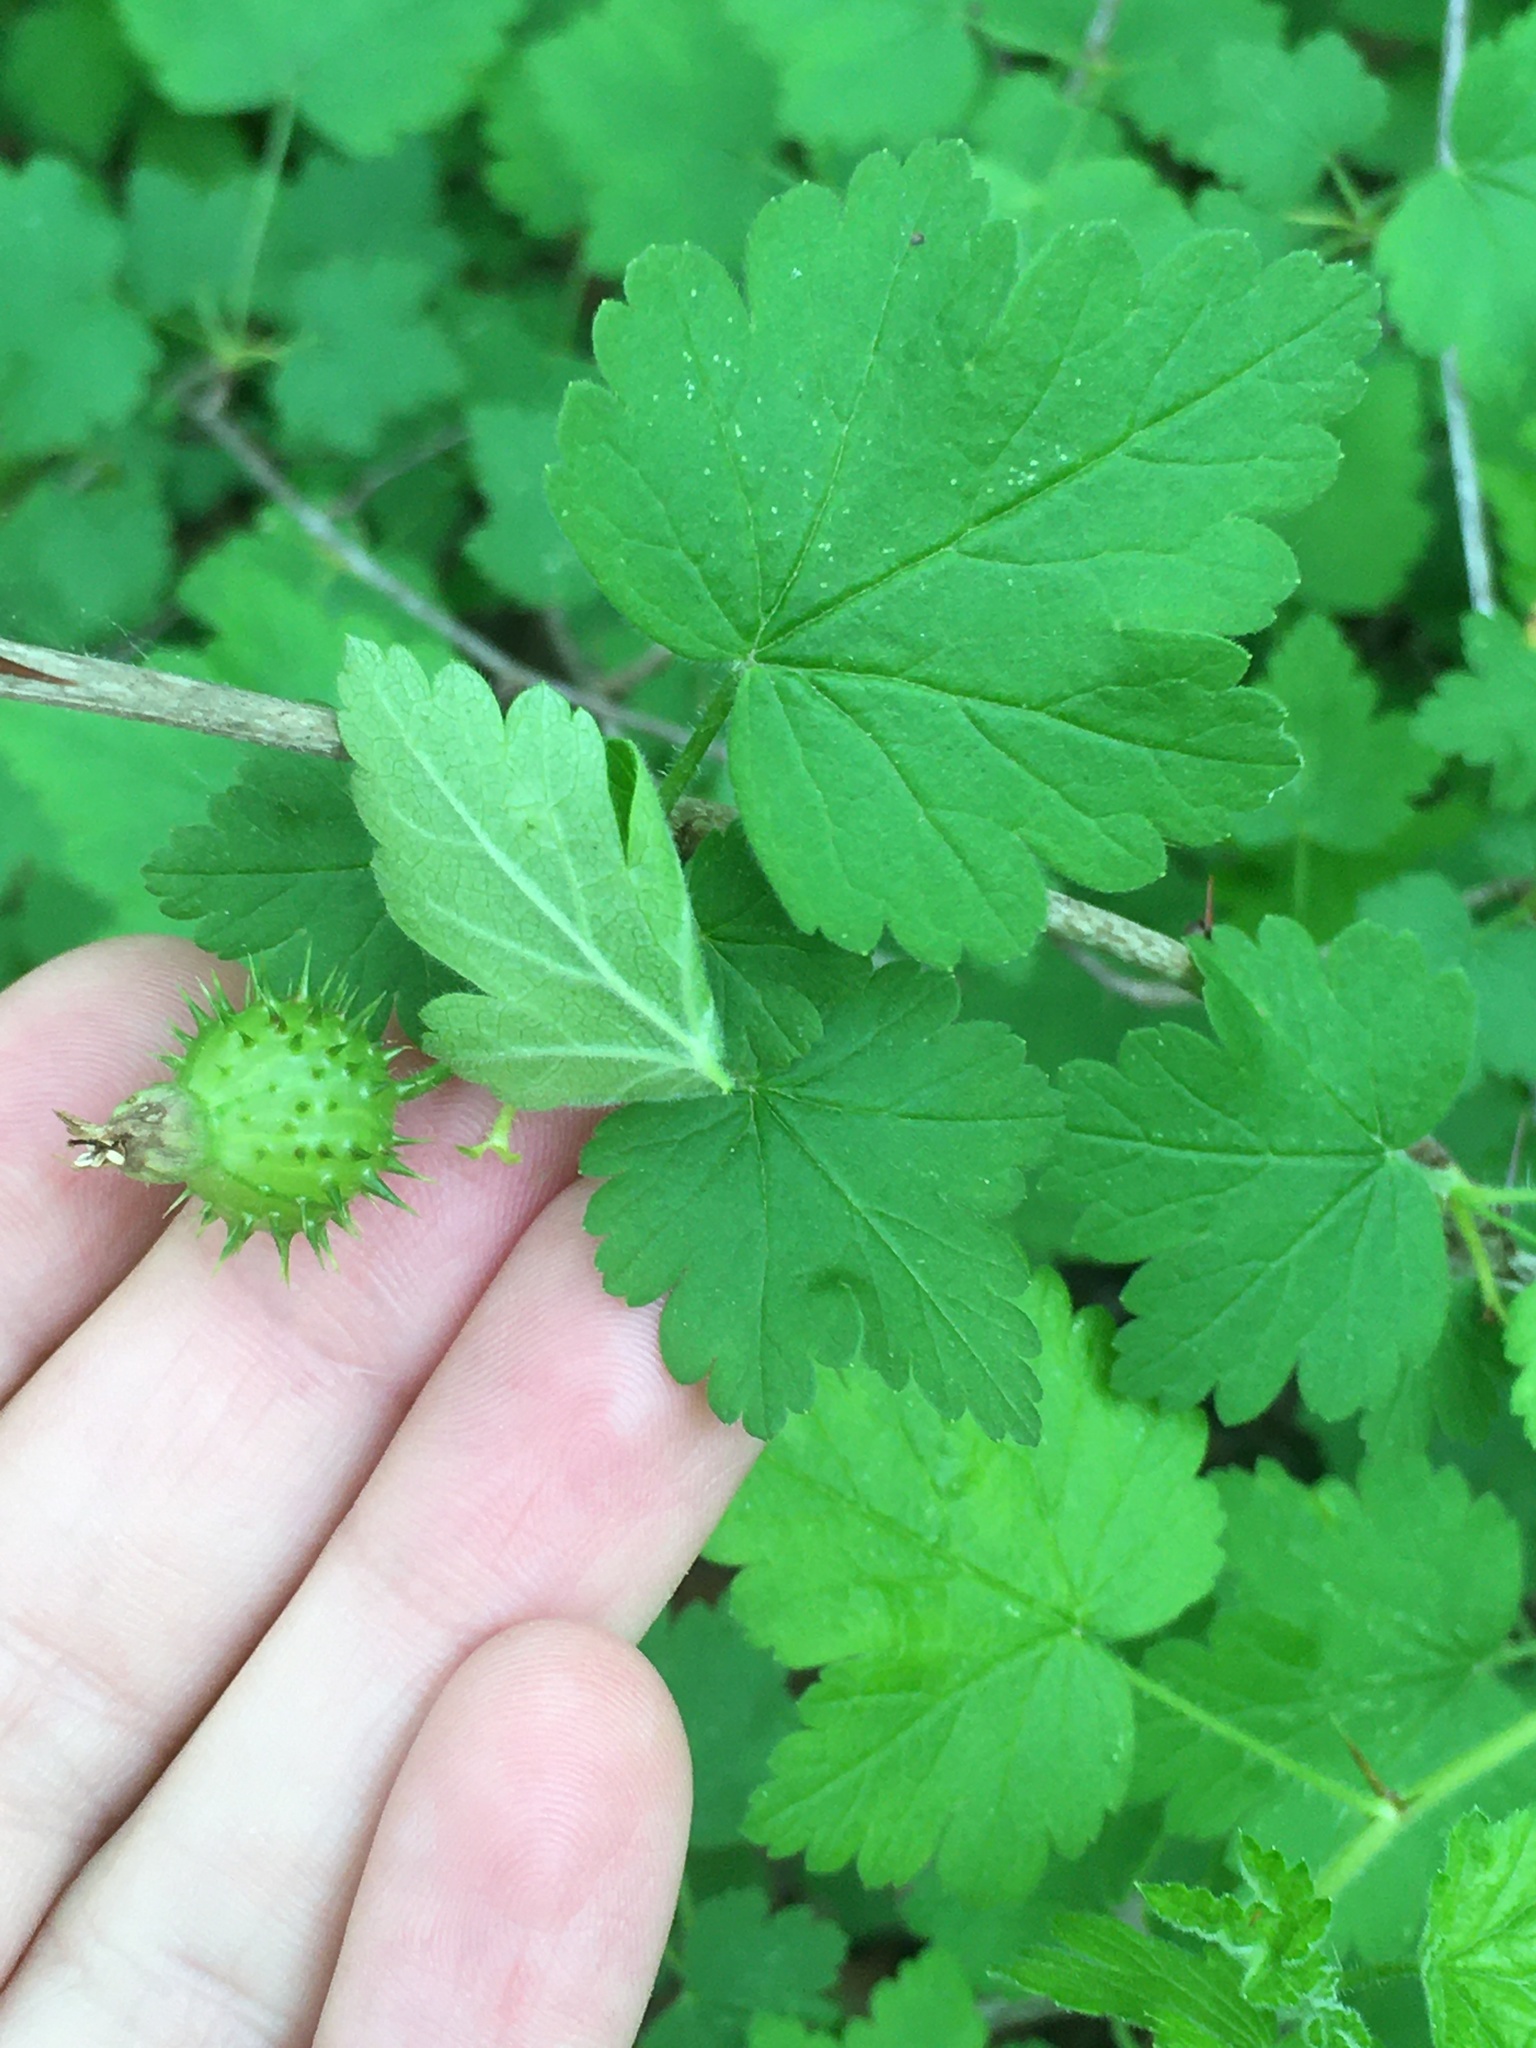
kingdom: Plantae
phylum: Tracheophyta
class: Magnoliopsida
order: Saxifragales
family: Grossulariaceae
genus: Ribes
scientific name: Ribes cynosbati
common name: American gooseberry
